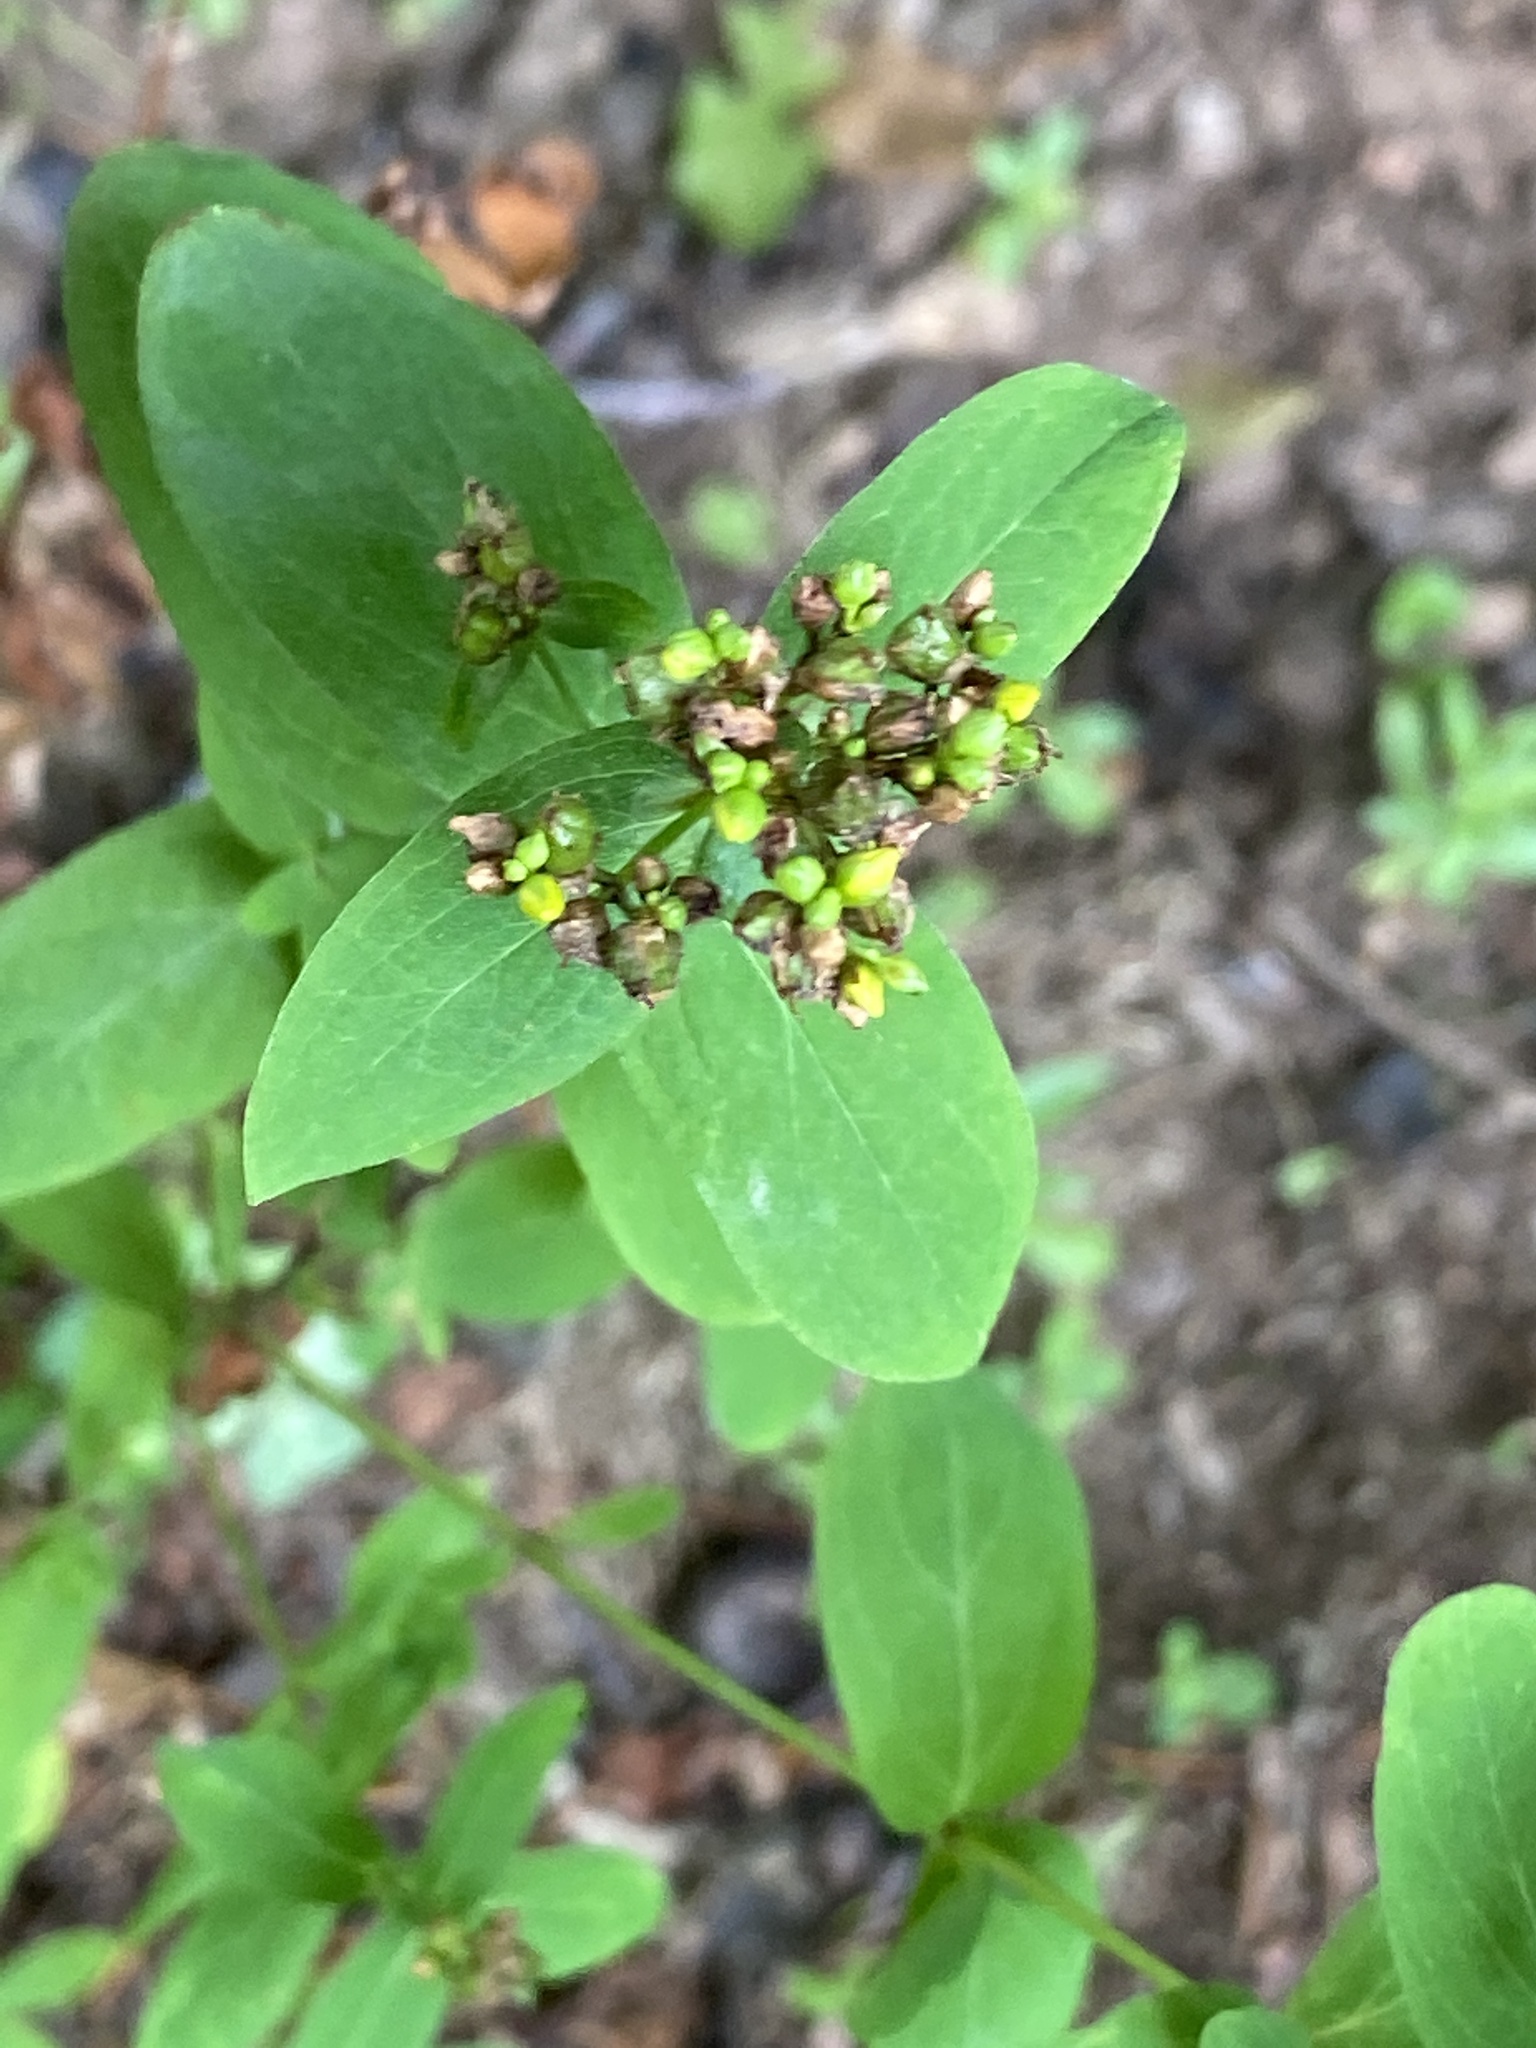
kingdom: Plantae
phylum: Tracheophyta
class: Magnoliopsida
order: Malpighiales
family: Hypericaceae
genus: Hypericum
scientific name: Hypericum punctatum
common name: Spotted st. john's-wort
